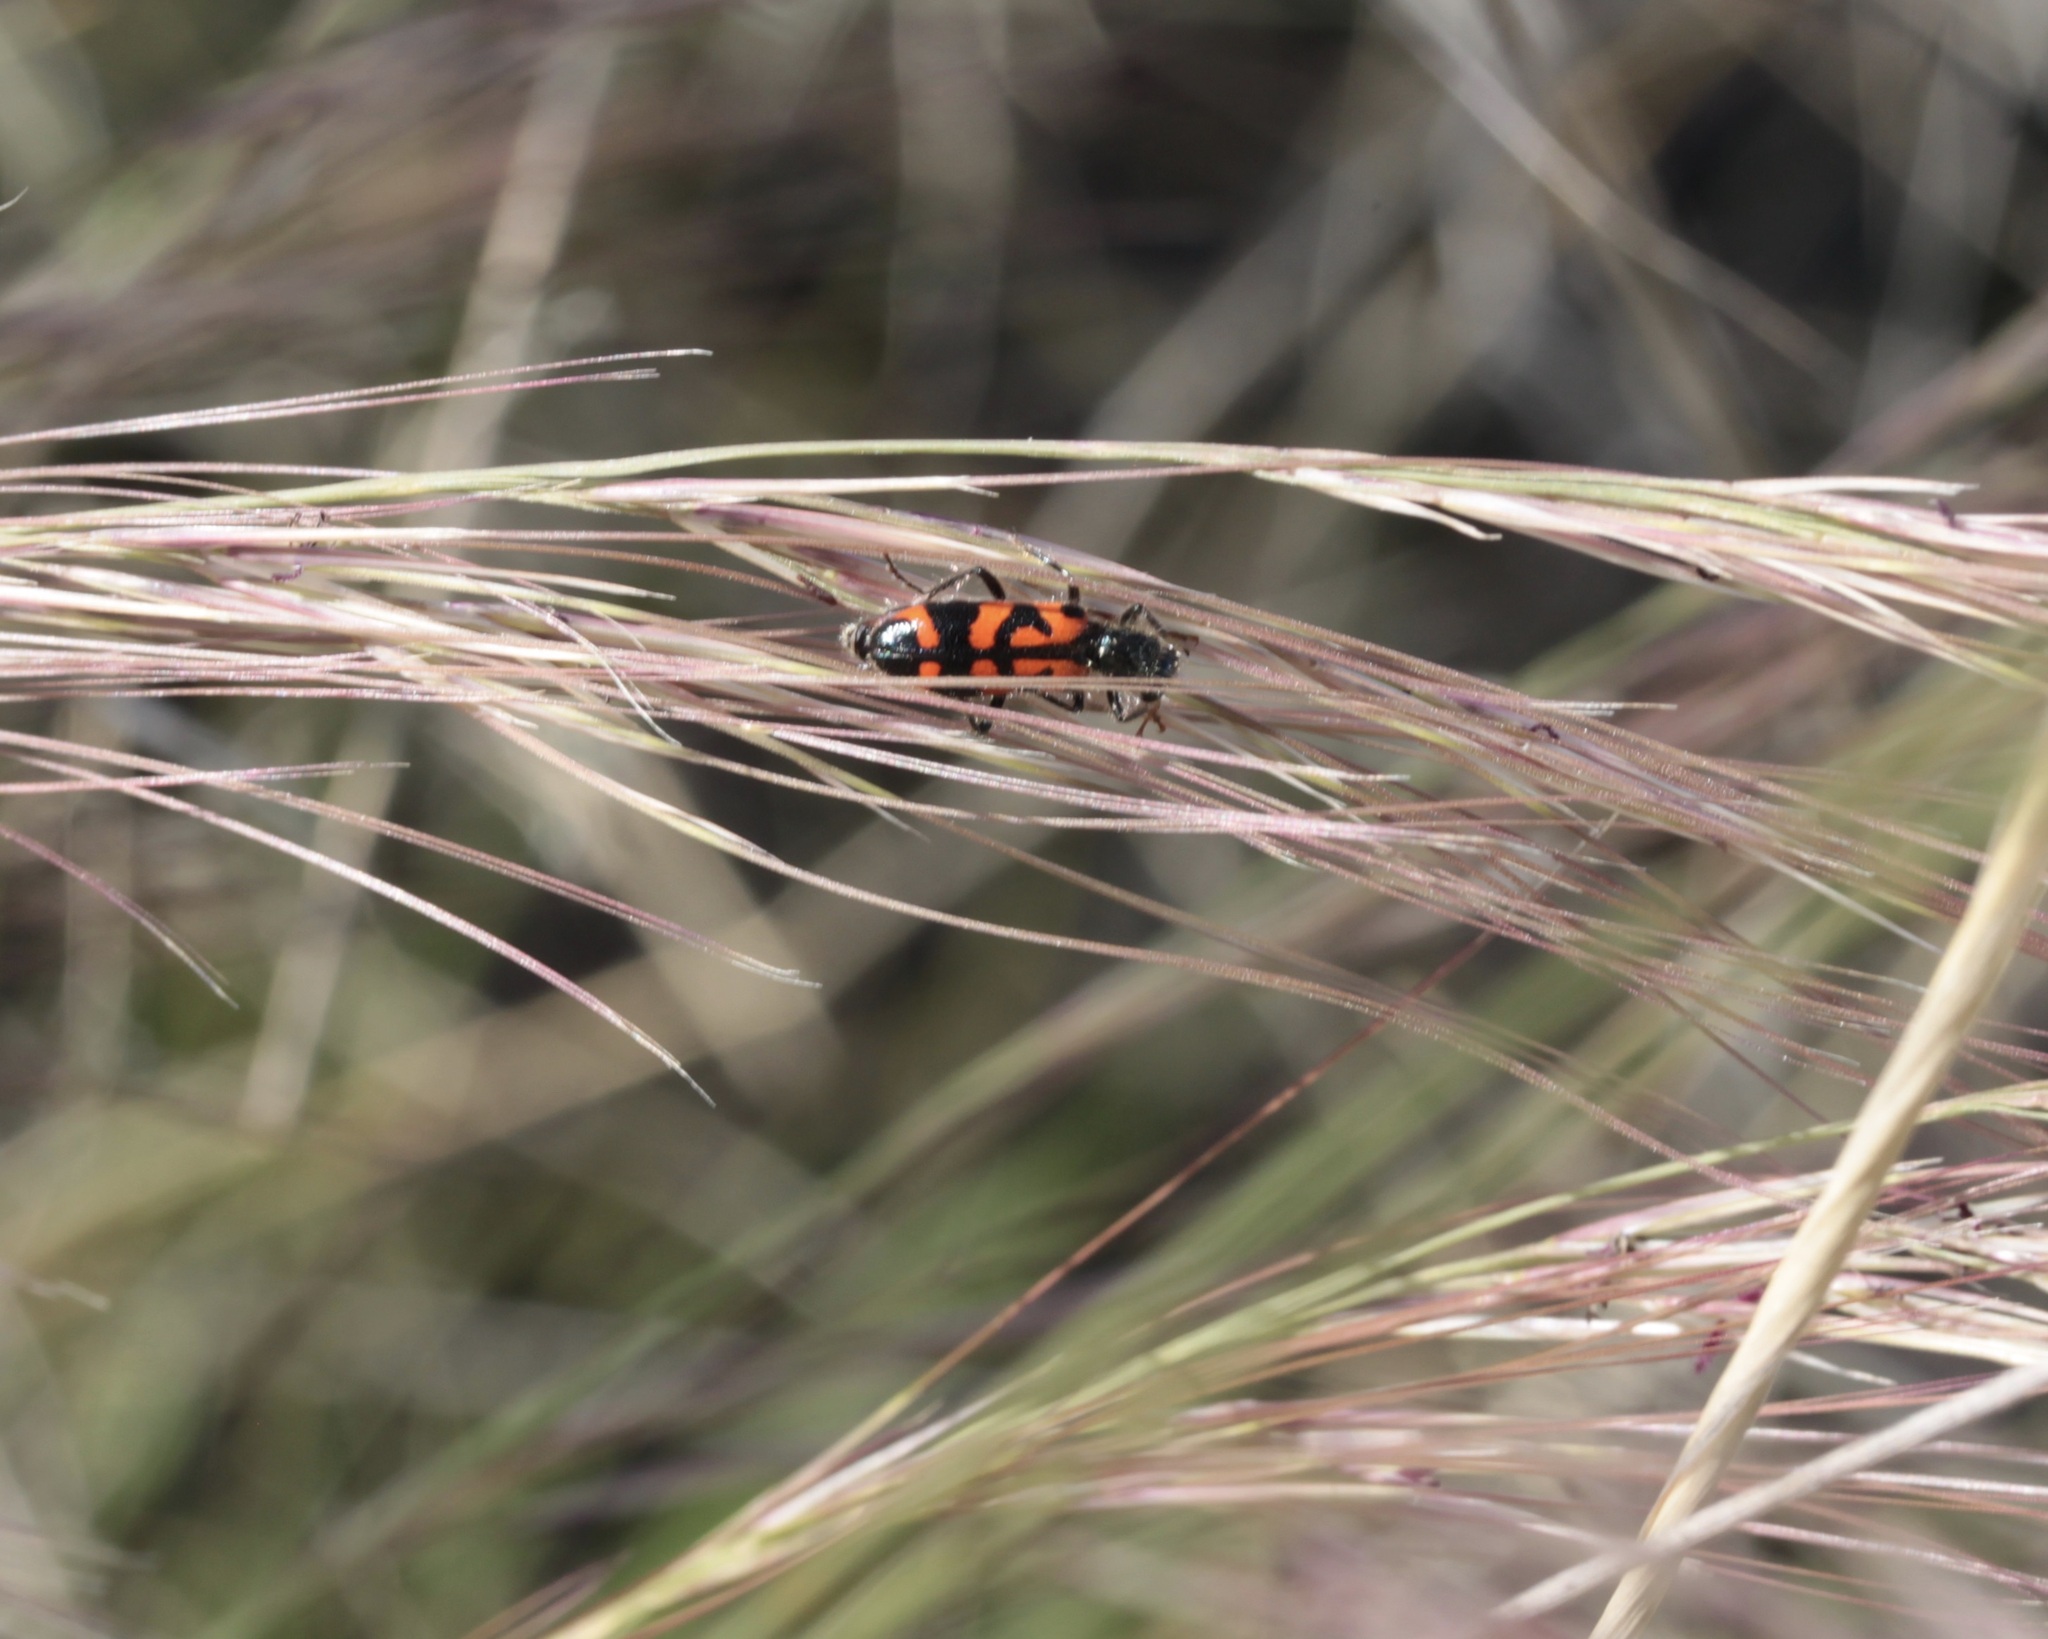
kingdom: Animalia
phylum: Arthropoda
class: Insecta
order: Coleoptera
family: Cleridae
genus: Trichodes
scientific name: Trichodes ornatus
